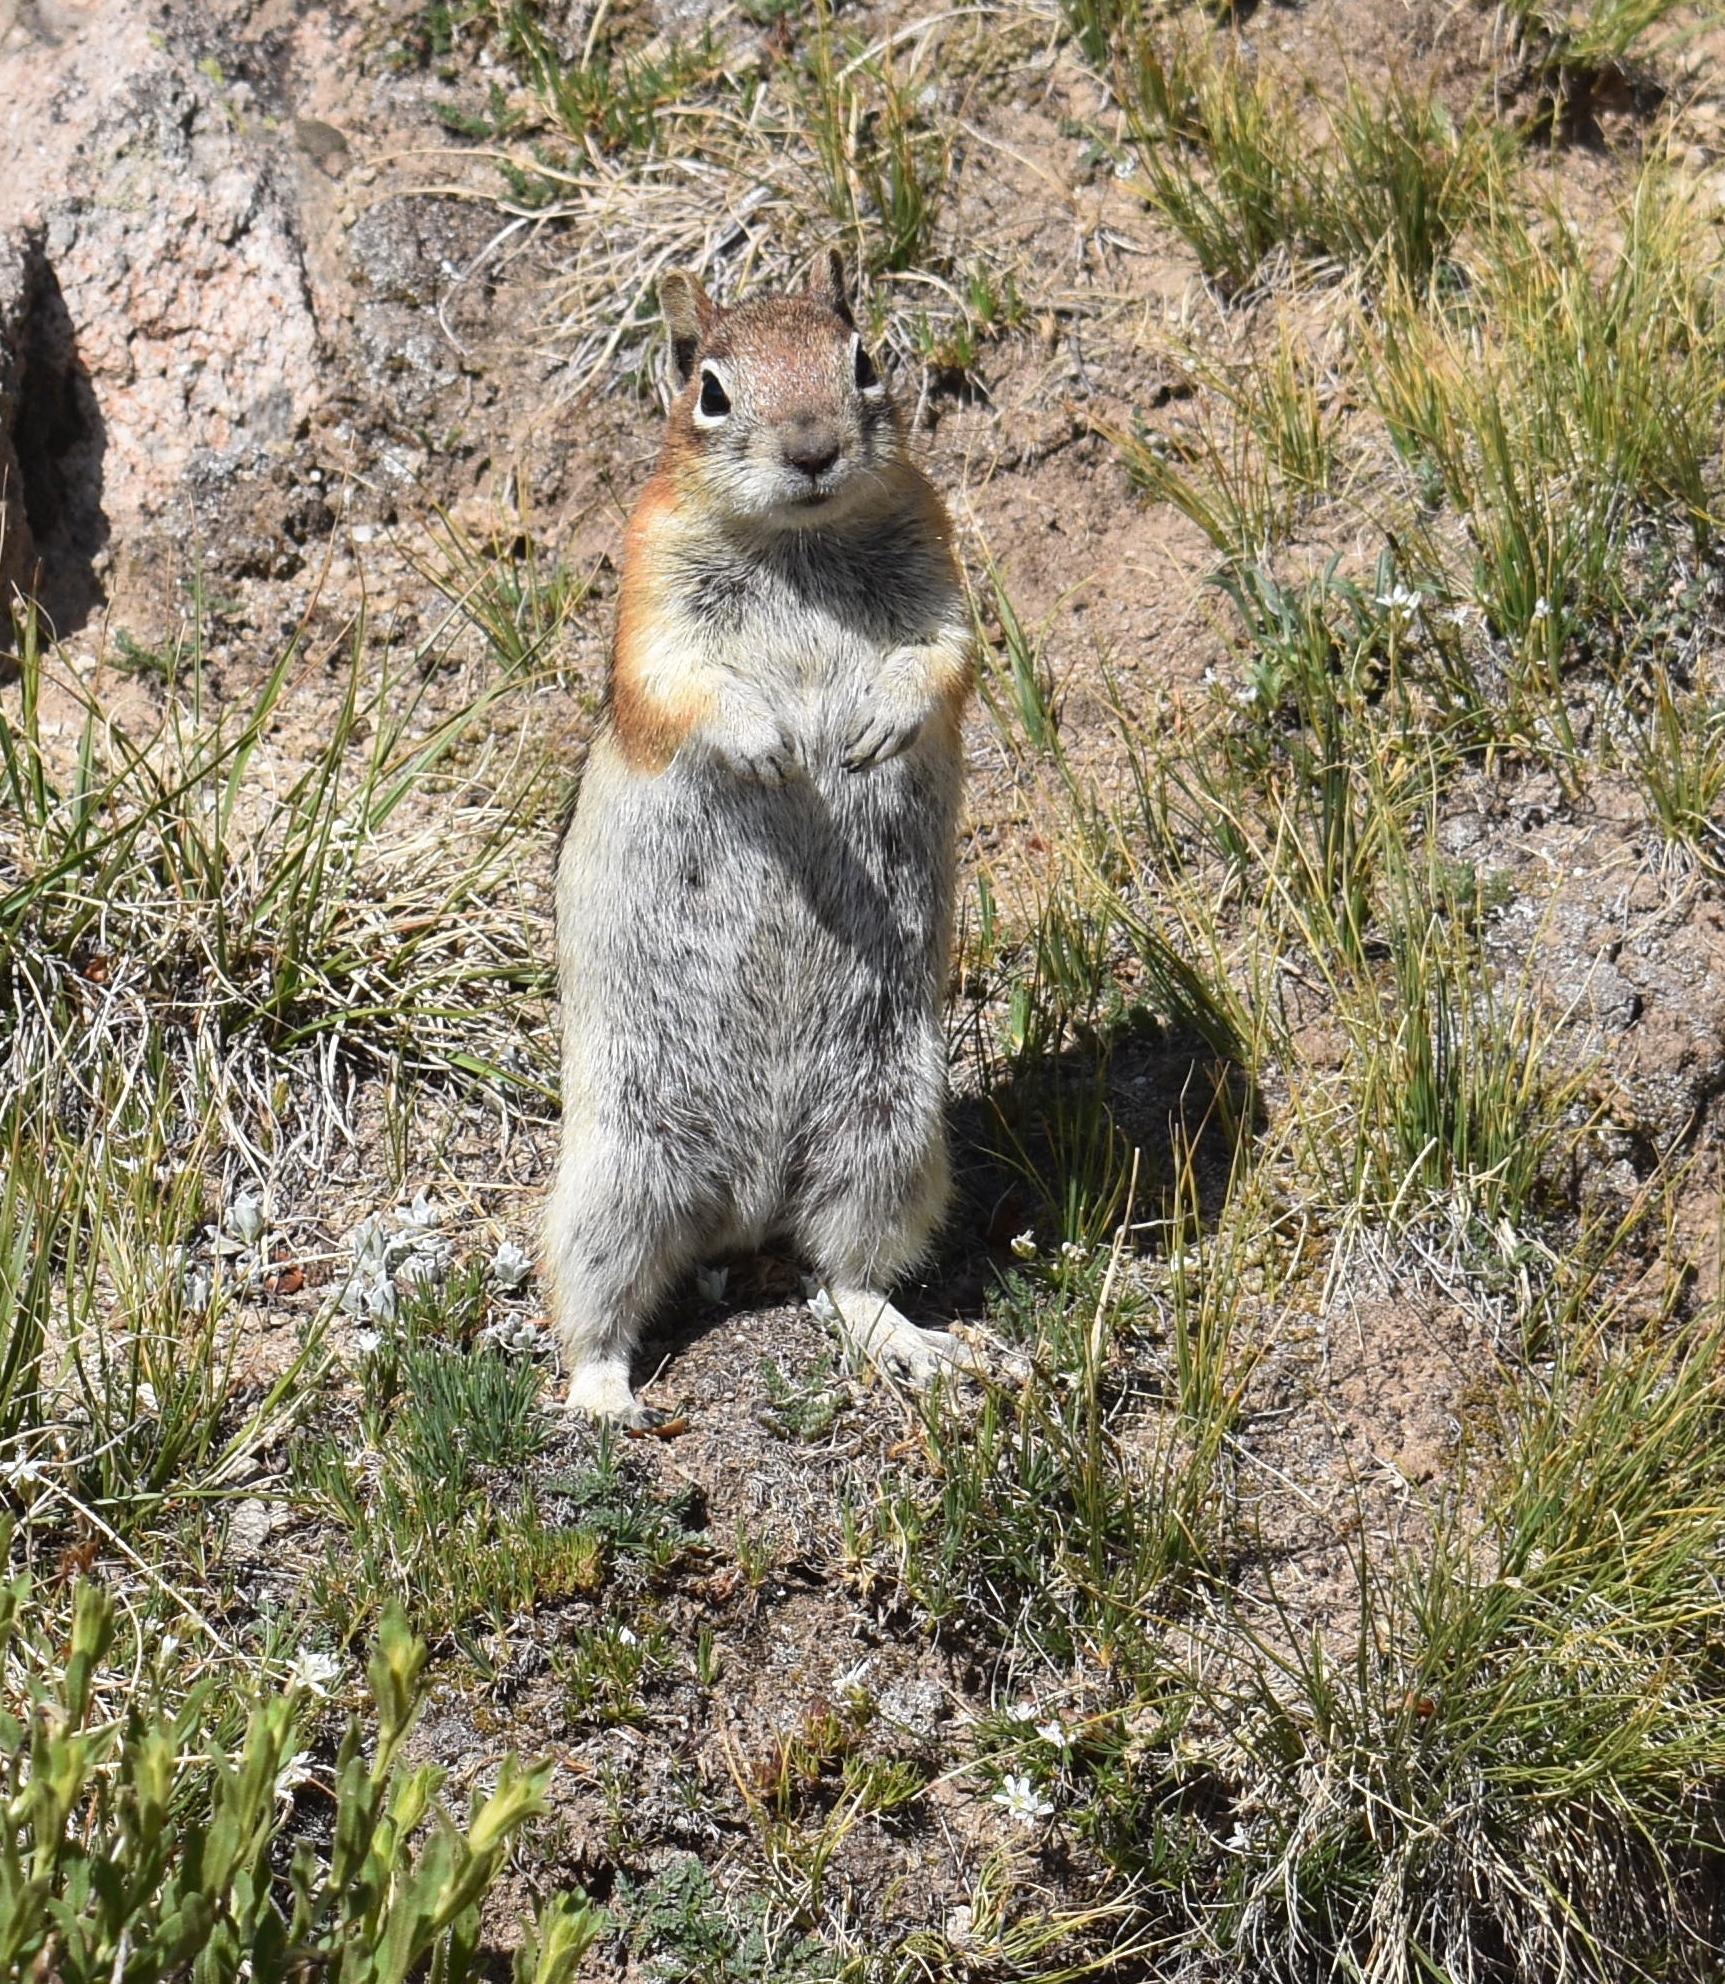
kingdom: Animalia
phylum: Chordata
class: Mammalia
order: Rodentia
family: Sciuridae
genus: Callospermophilus
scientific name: Callospermophilus lateralis
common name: Golden-mantled ground squirrel
